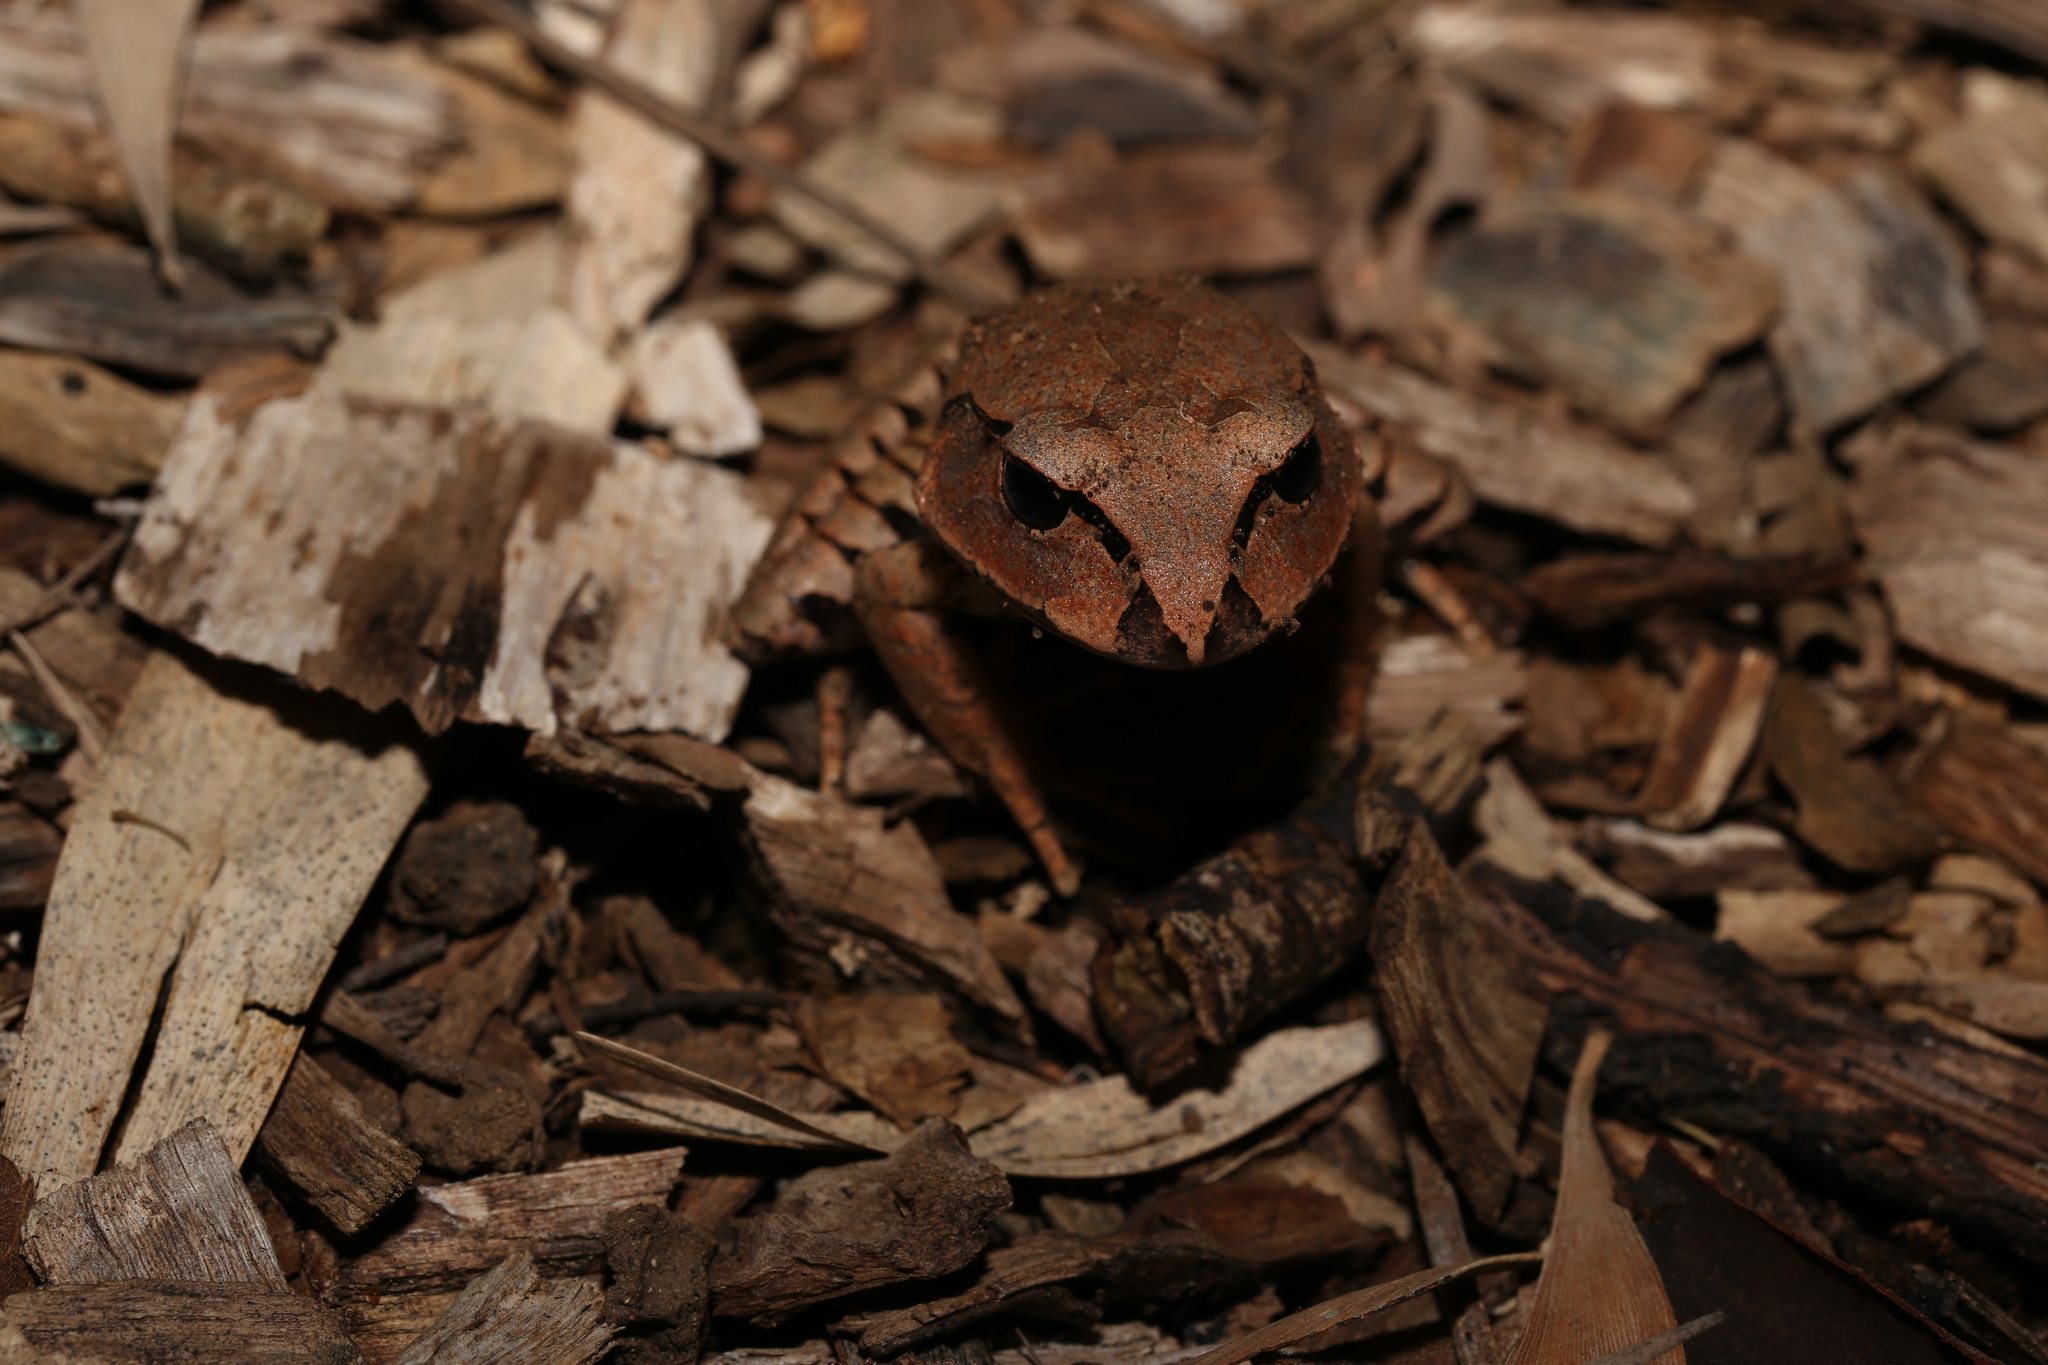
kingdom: Animalia
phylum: Chordata
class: Amphibia
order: Anura
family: Myobatrachidae
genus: Mixophyes
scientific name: Mixophyes fasciolatus
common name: Great barred river-frog
